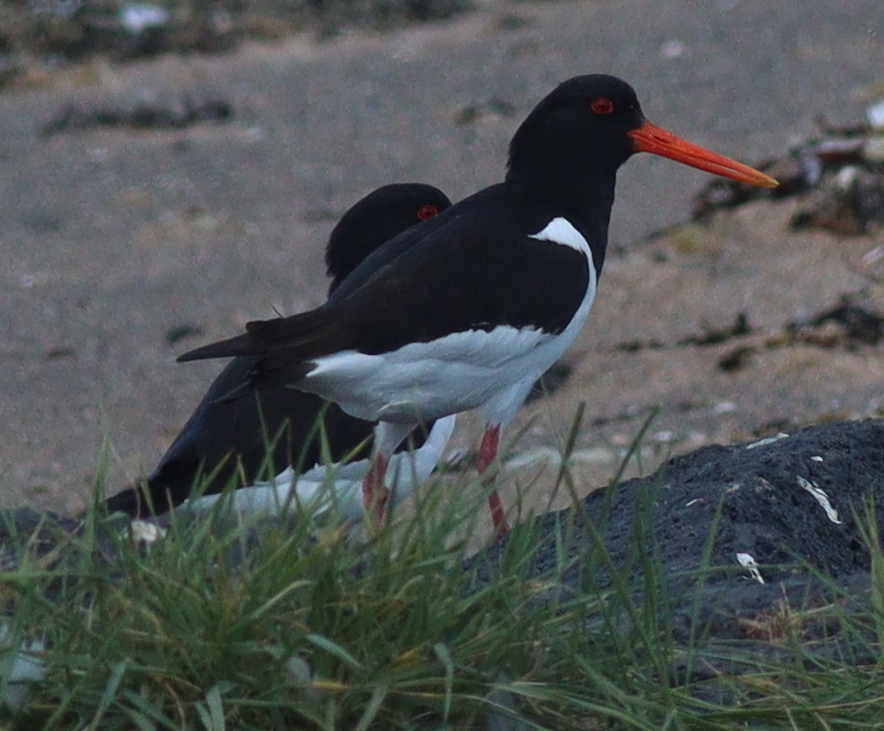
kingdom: Animalia
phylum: Chordata
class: Aves
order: Charadriiformes
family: Haematopodidae
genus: Haematopus
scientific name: Haematopus ostralegus
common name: Eurasian oystercatcher
